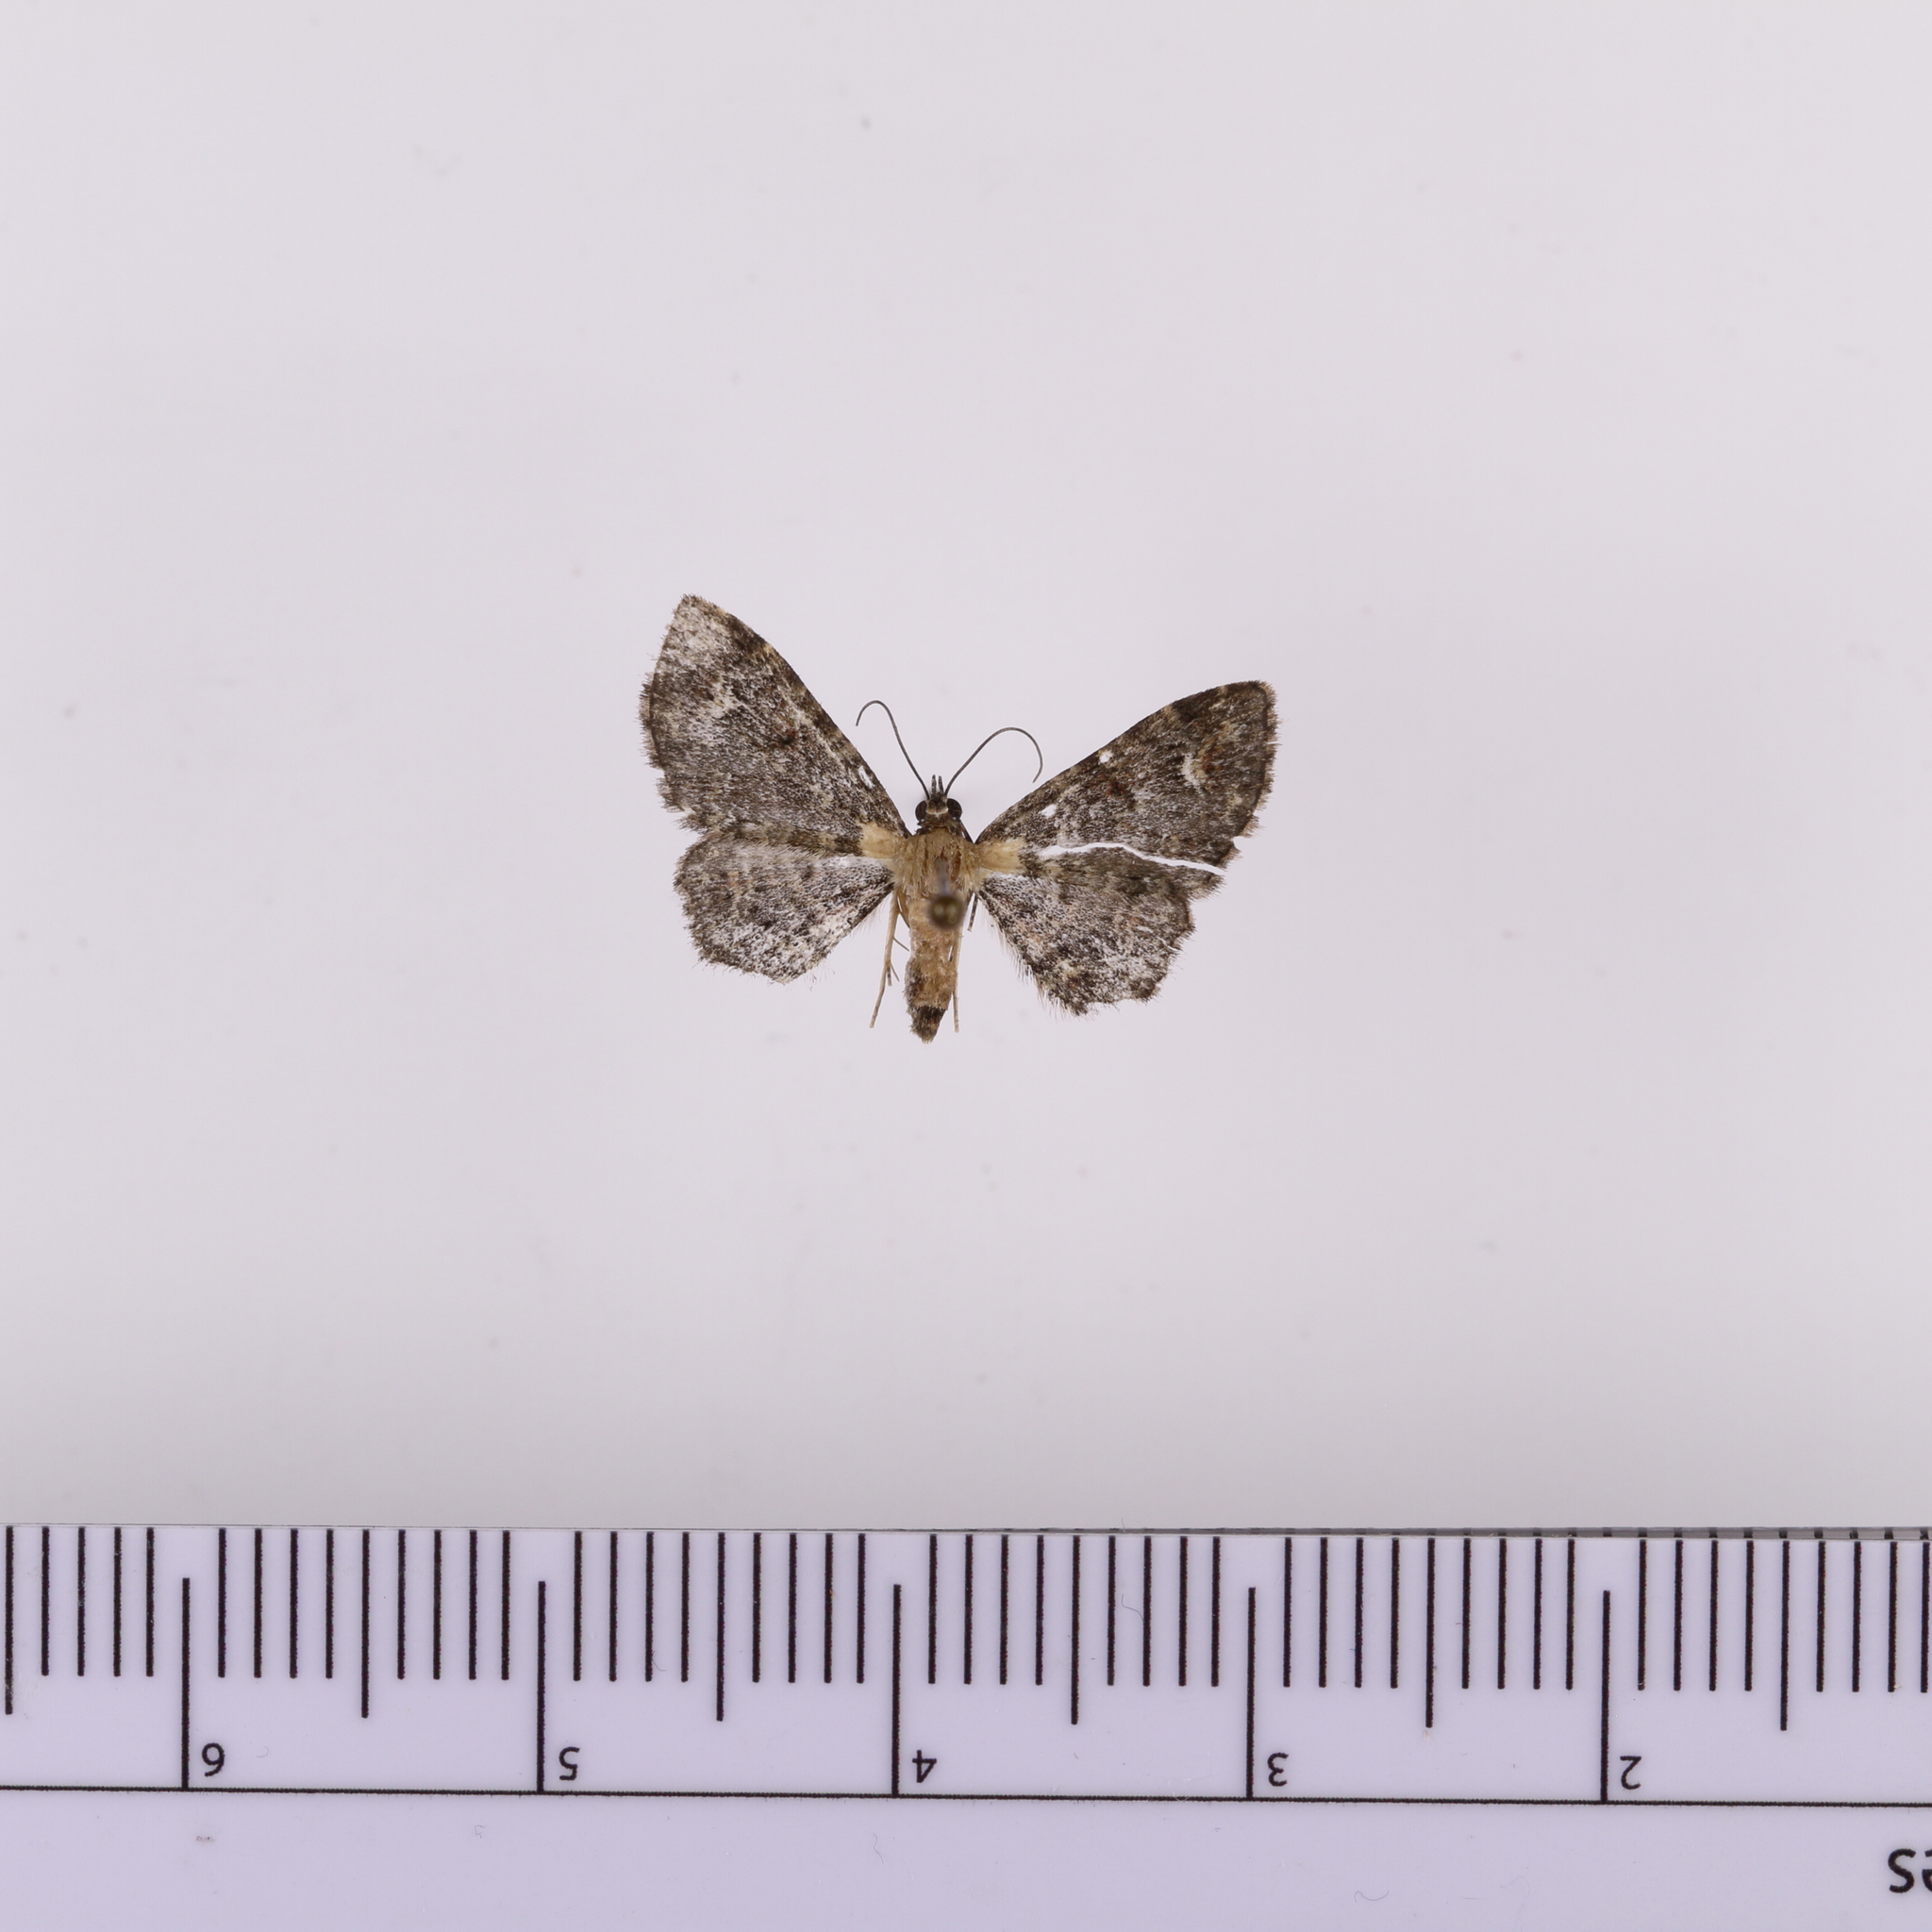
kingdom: Animalia
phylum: Arthropoda
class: Insecta
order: Lepidoptera
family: Geometridae
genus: Pasiphilodes
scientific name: Pasiphilodes testulata
